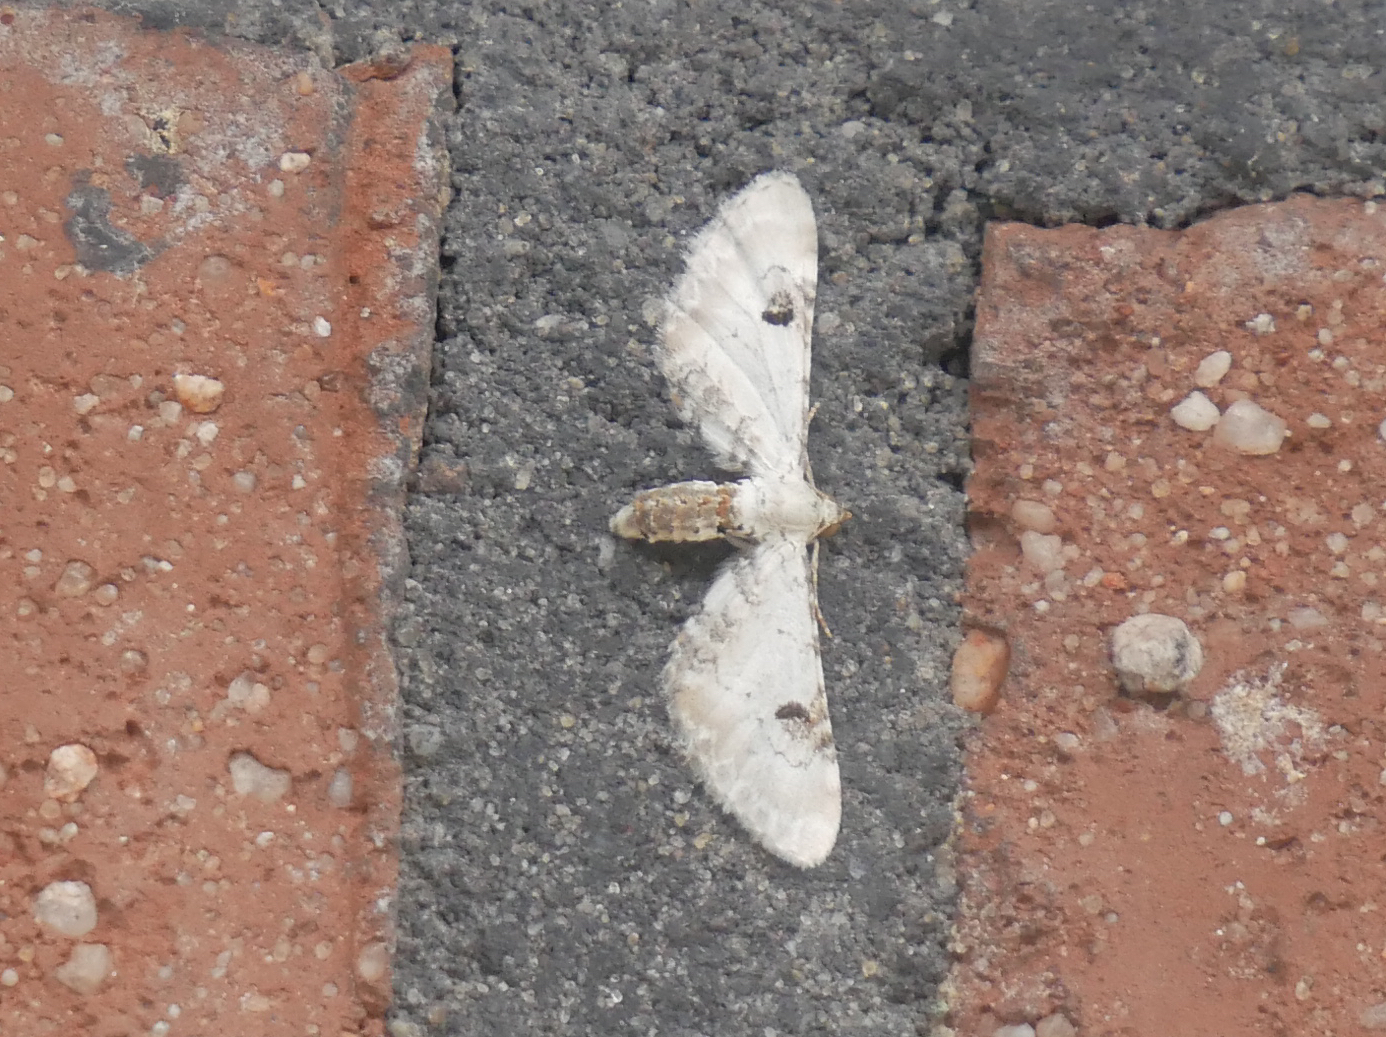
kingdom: Animalia
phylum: Arthropoda
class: Insecta
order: Lepidoptera
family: Geometridae
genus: Eupithecia
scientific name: Eupithecia centaureata
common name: Lime-speck pug
